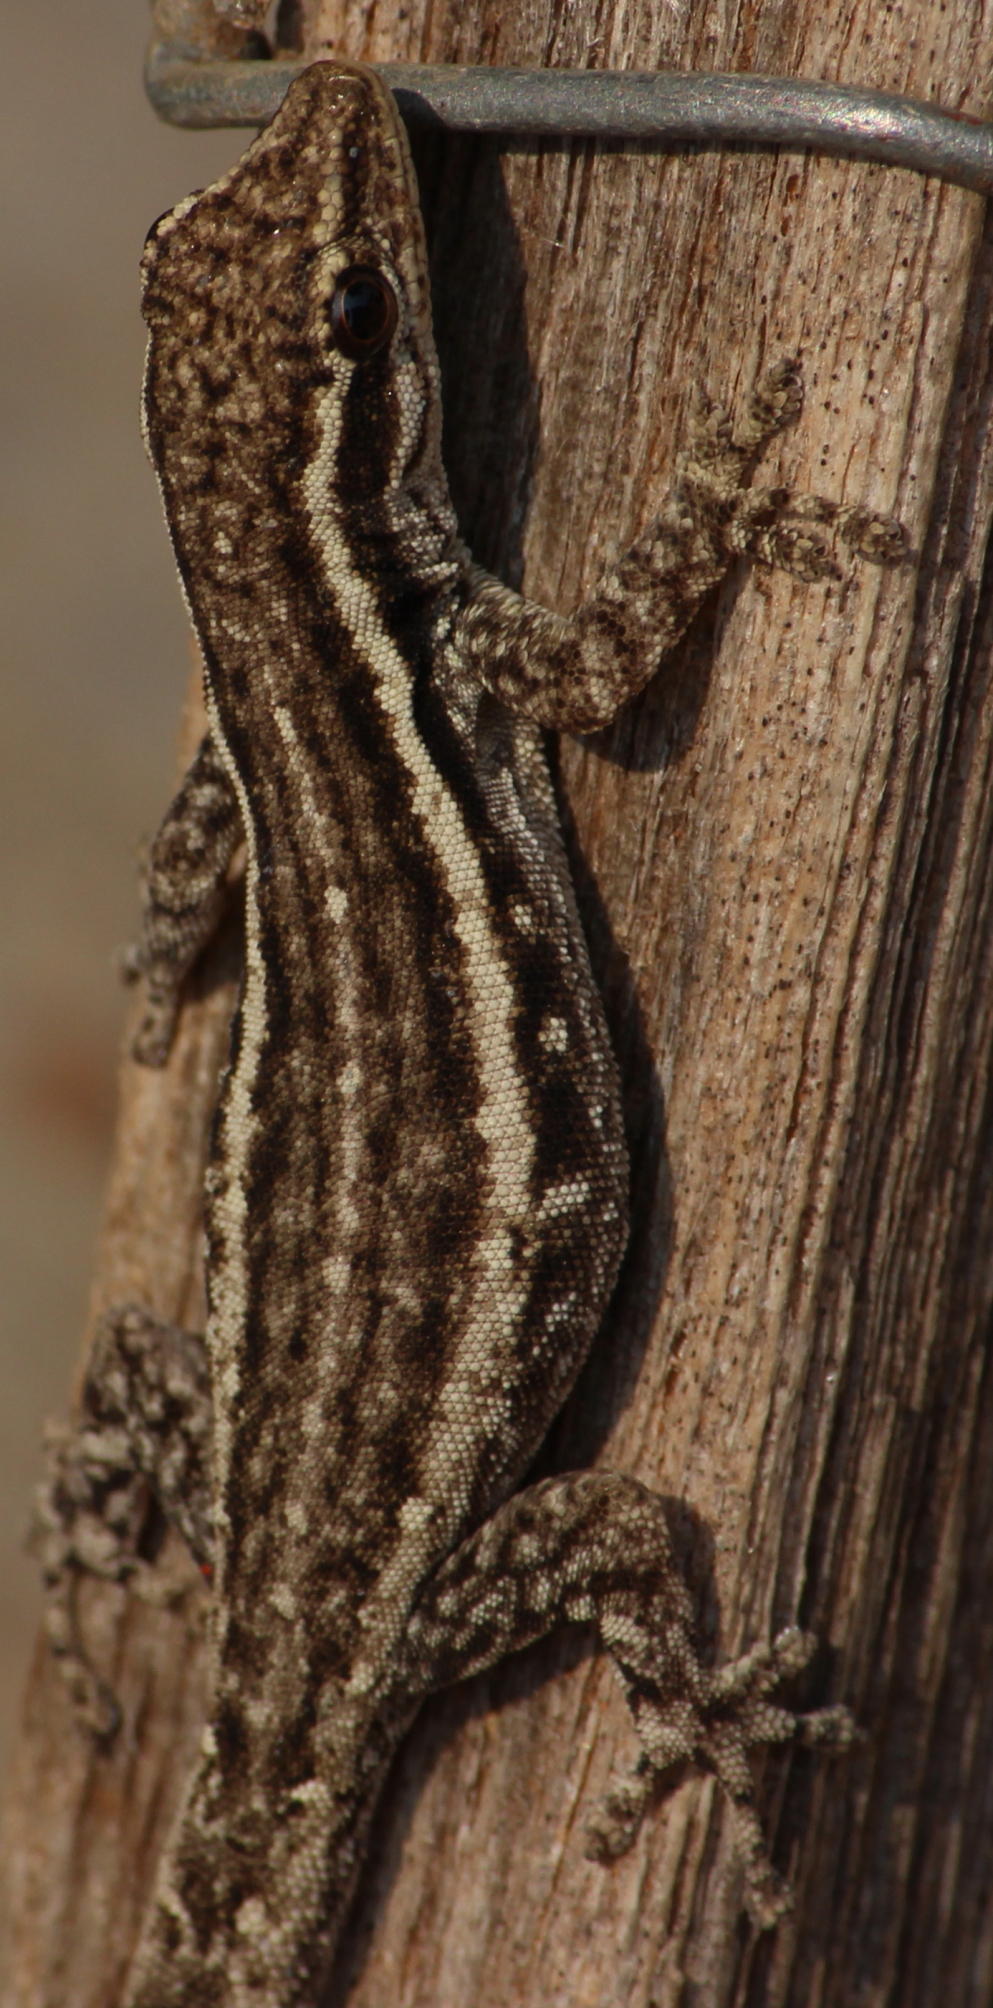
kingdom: Animalia
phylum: Chordata
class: Squamata
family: Gekkonidae
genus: Lygodactylus
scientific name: Lygodactylus capensis
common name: Cape dwarf gecko
